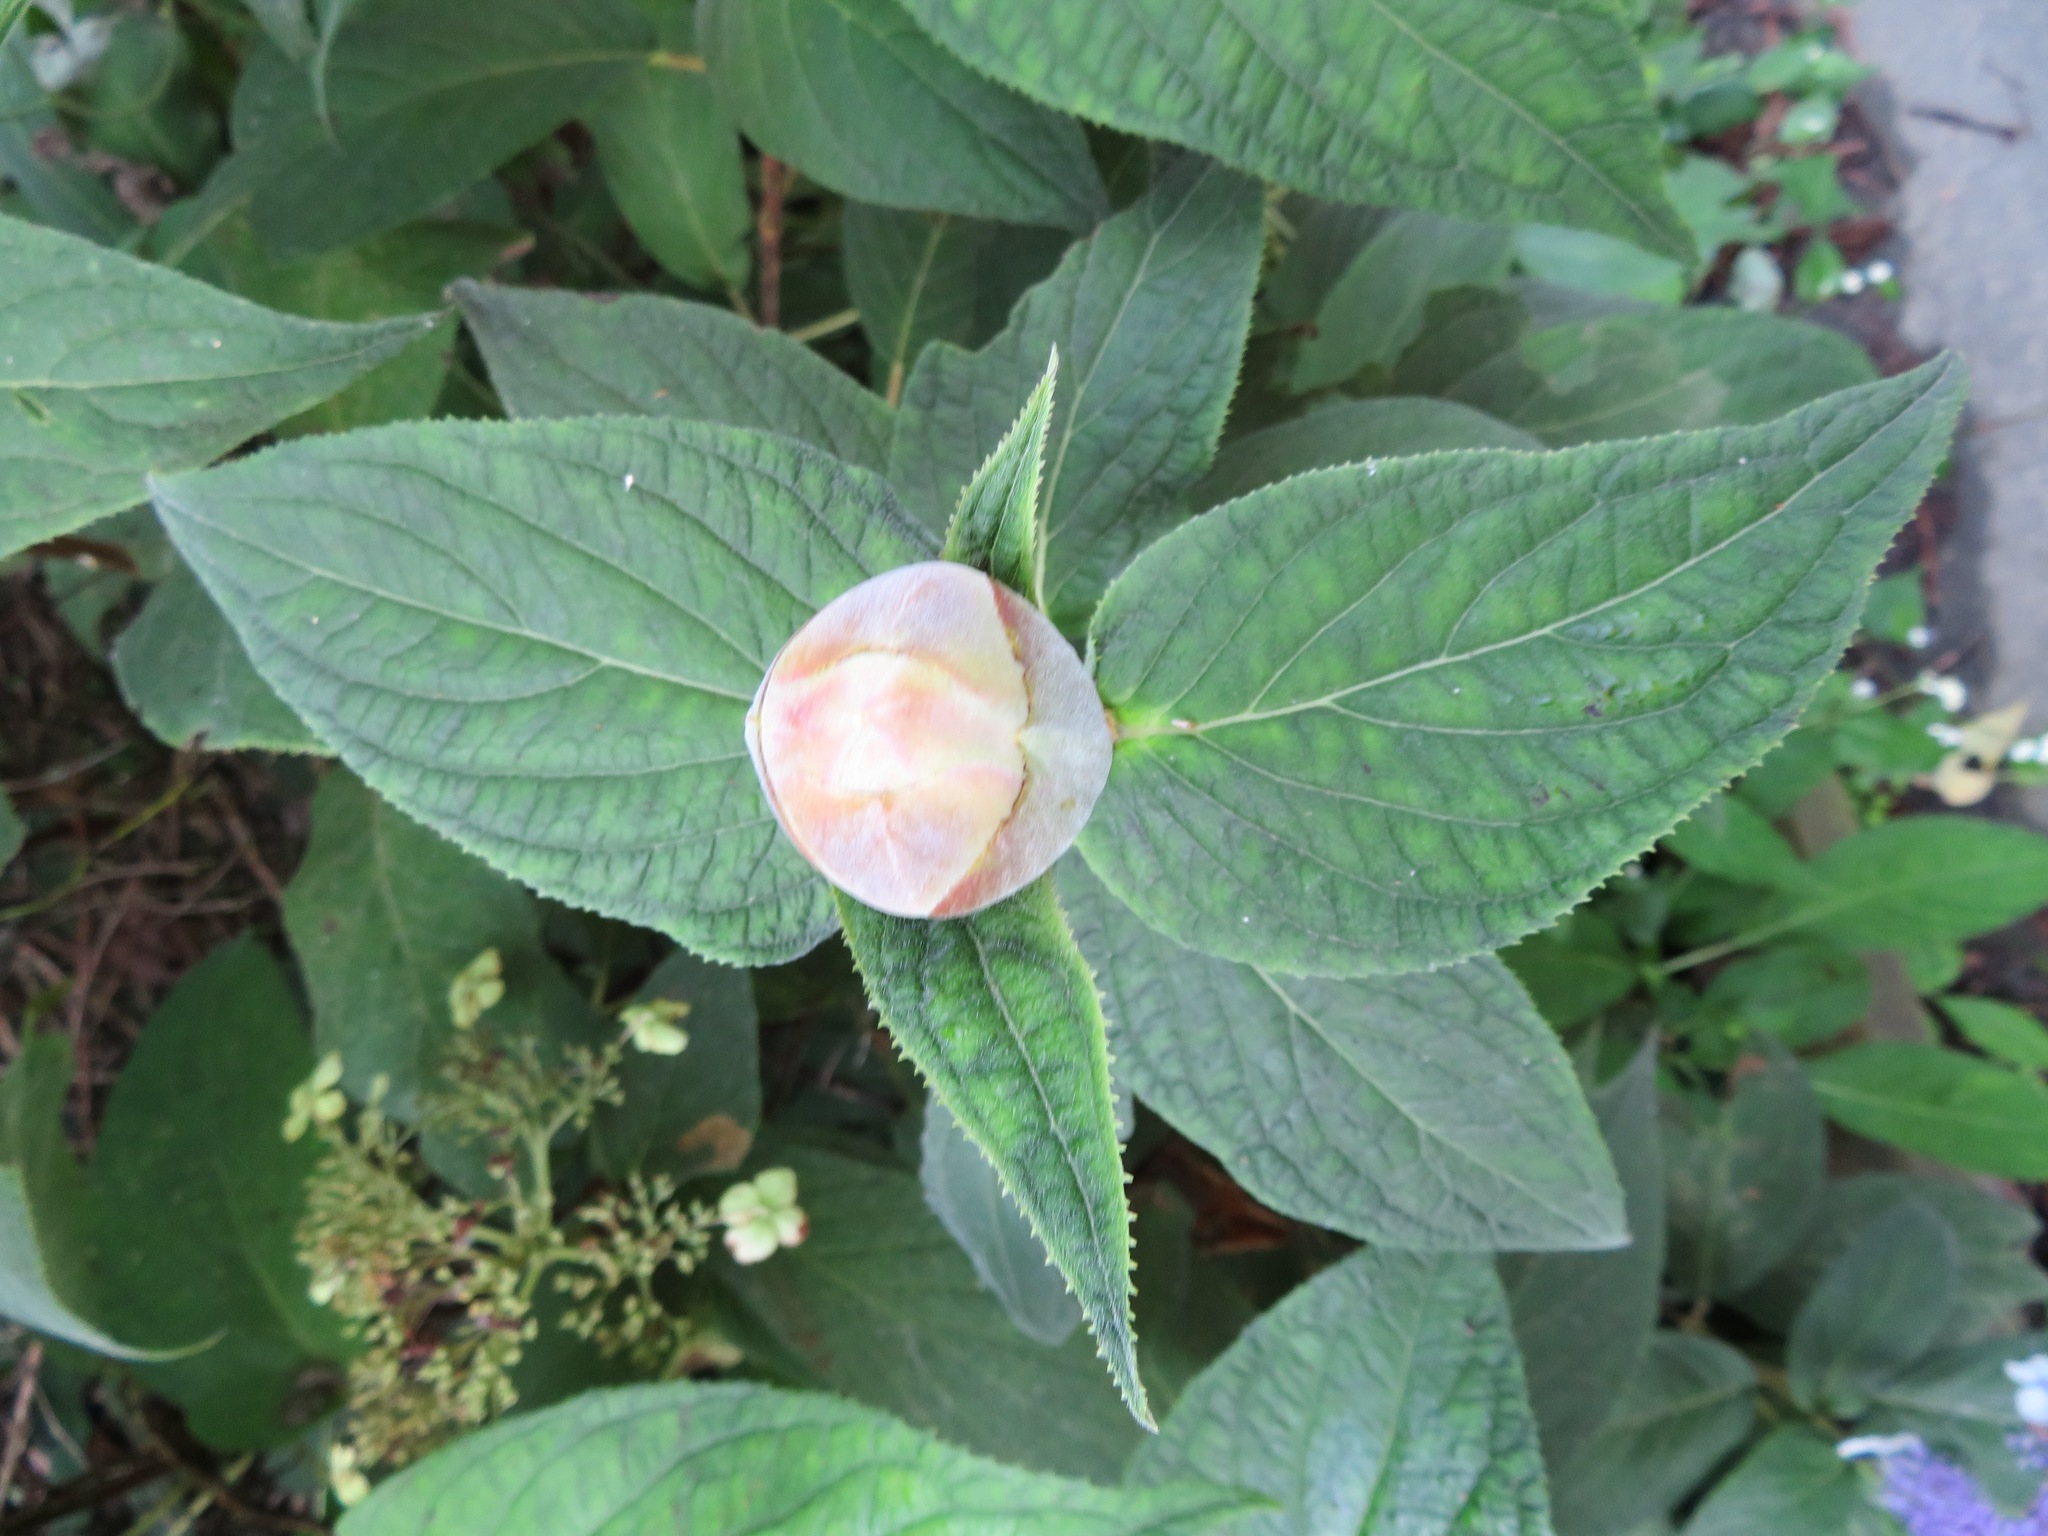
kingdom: Plantae
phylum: Tracheophyta
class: Magnoliopsida
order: Cornales
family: Hydrangeaceae
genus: Hydrangea
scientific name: Hydrangea involucrata
